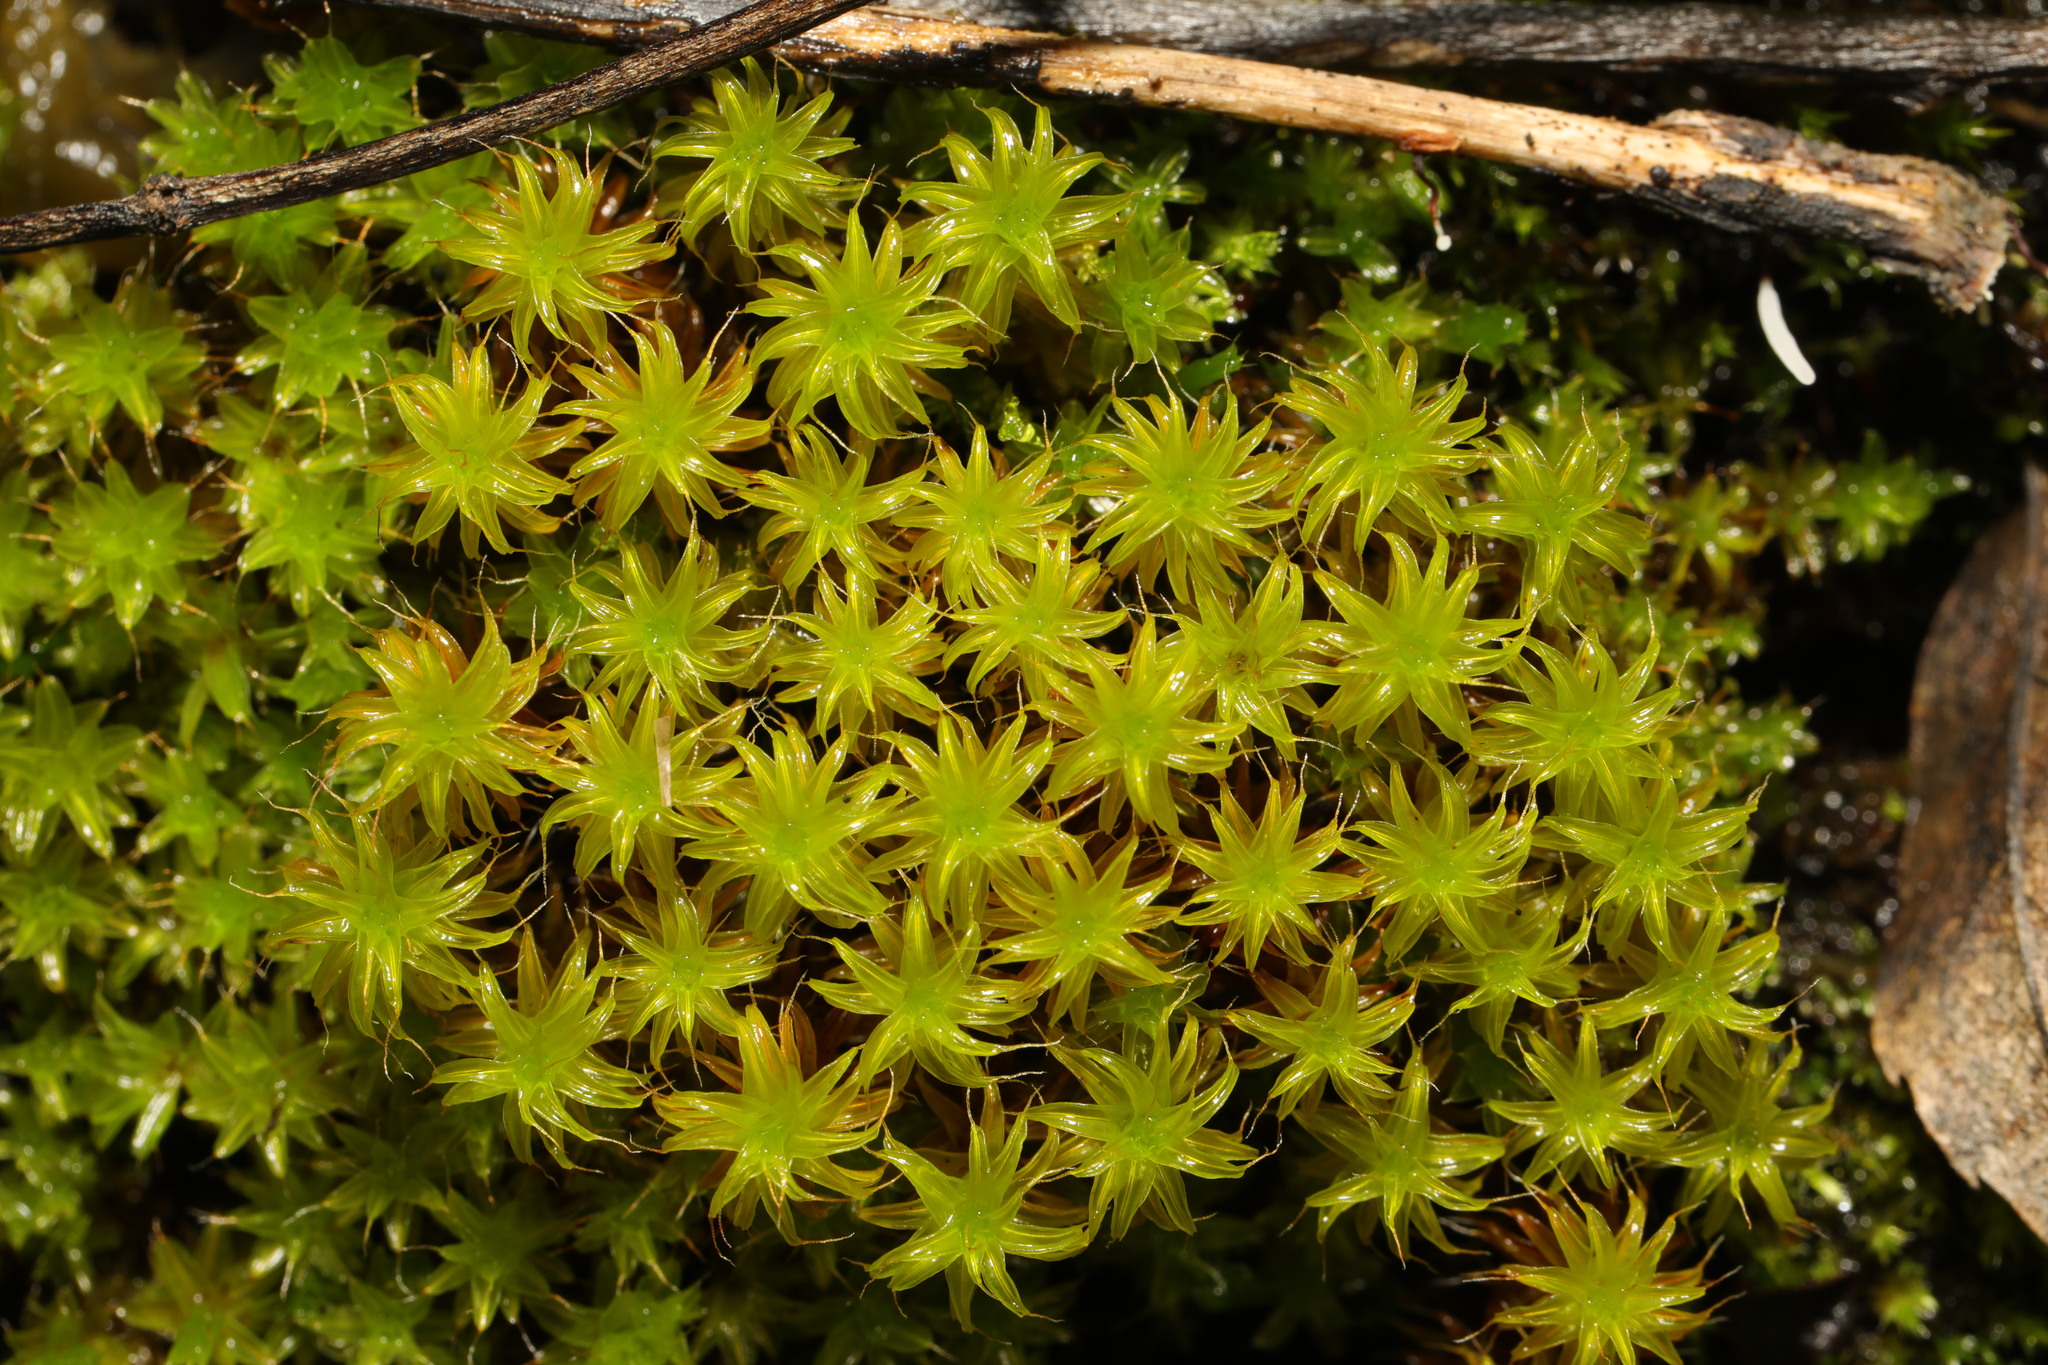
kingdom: Plantae
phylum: Bryophyta
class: Bryopsida
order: Pottiales
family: Pottiaceae
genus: Syntrichia
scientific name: Syntrichia ruralis
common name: Sidewalk screw moss
